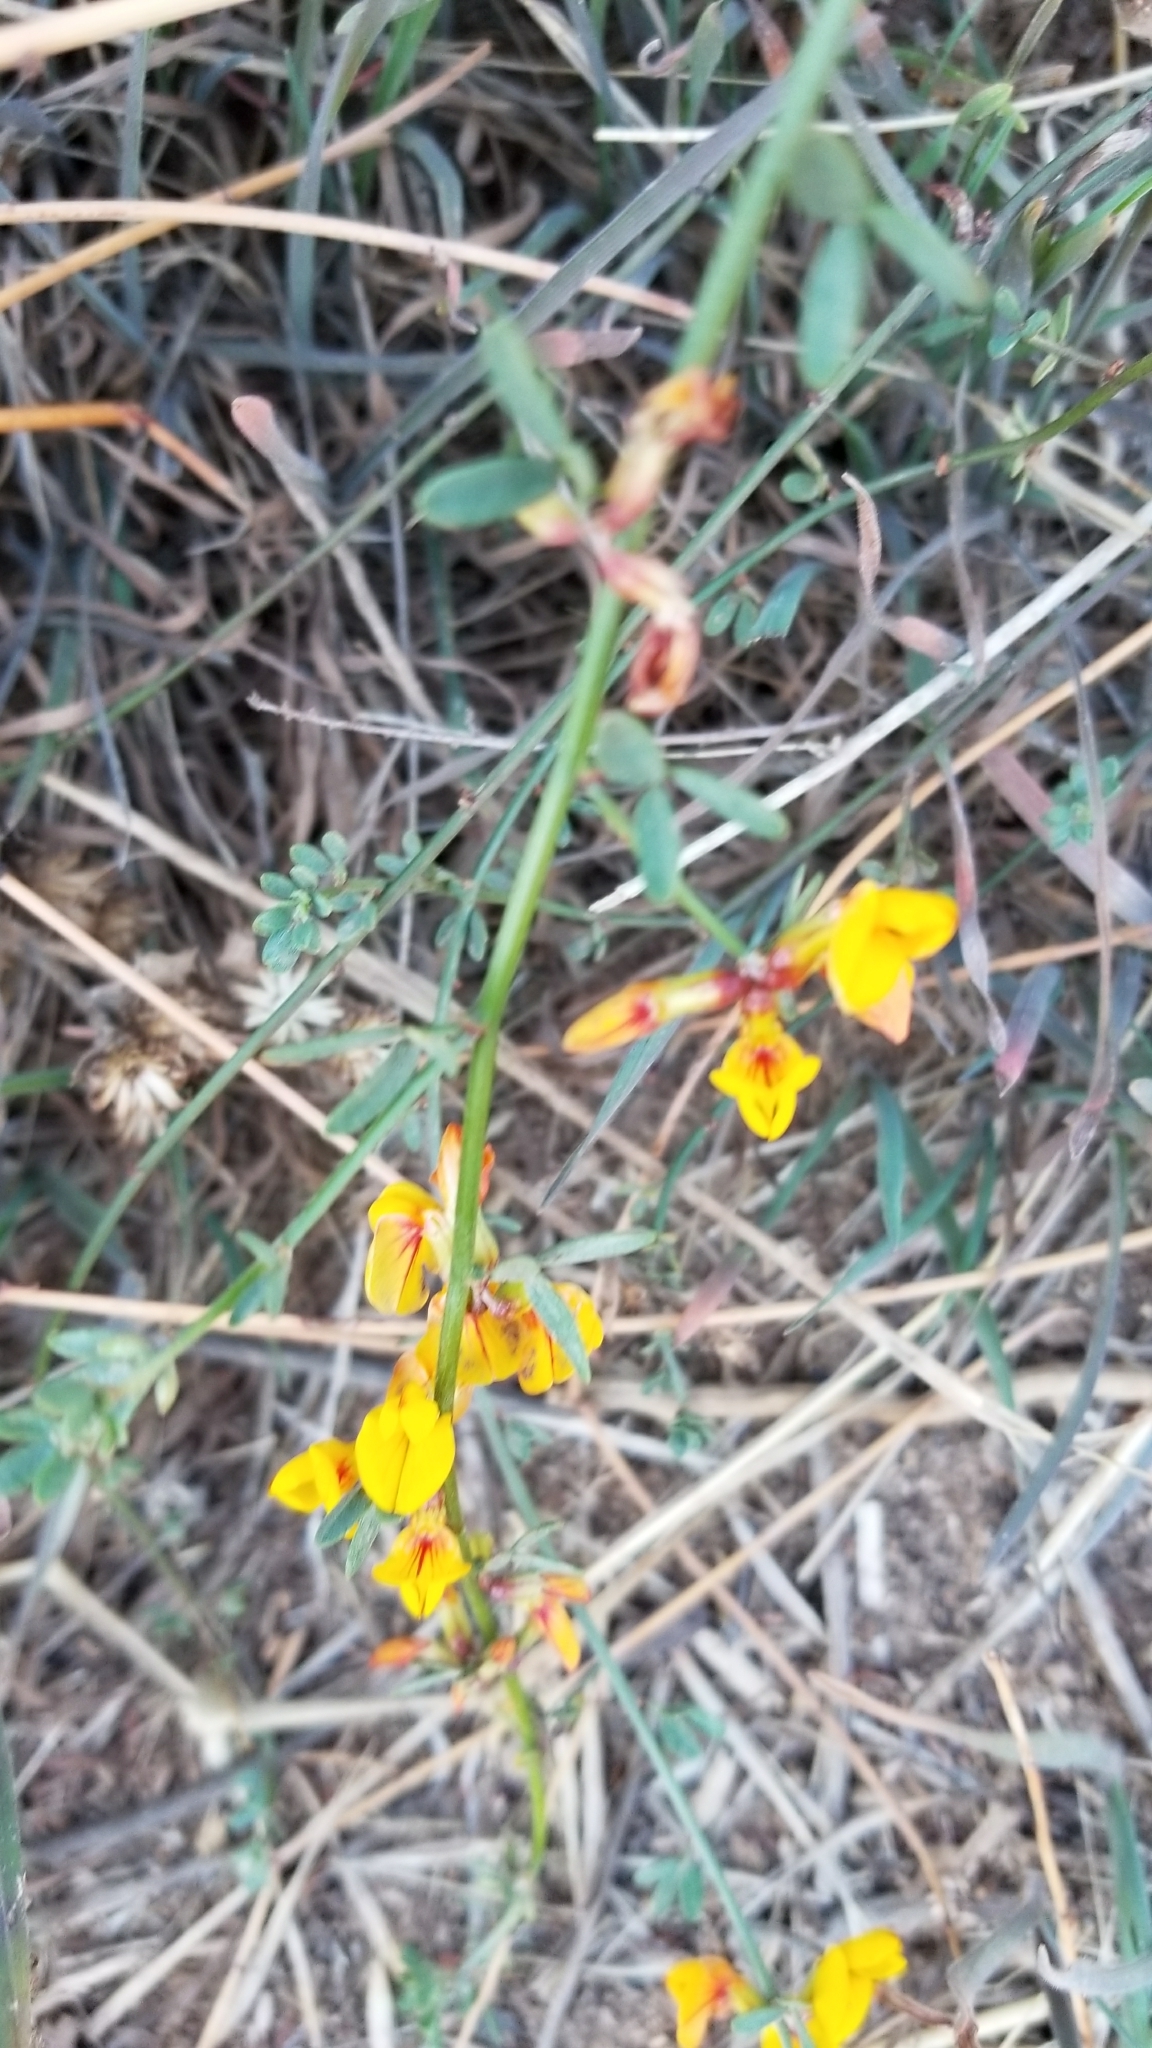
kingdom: Plantae
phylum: Tracheophyta
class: Magnoliopsida
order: Fabales
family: Fabaceae
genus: Acmispon
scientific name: Acmispon glaber
